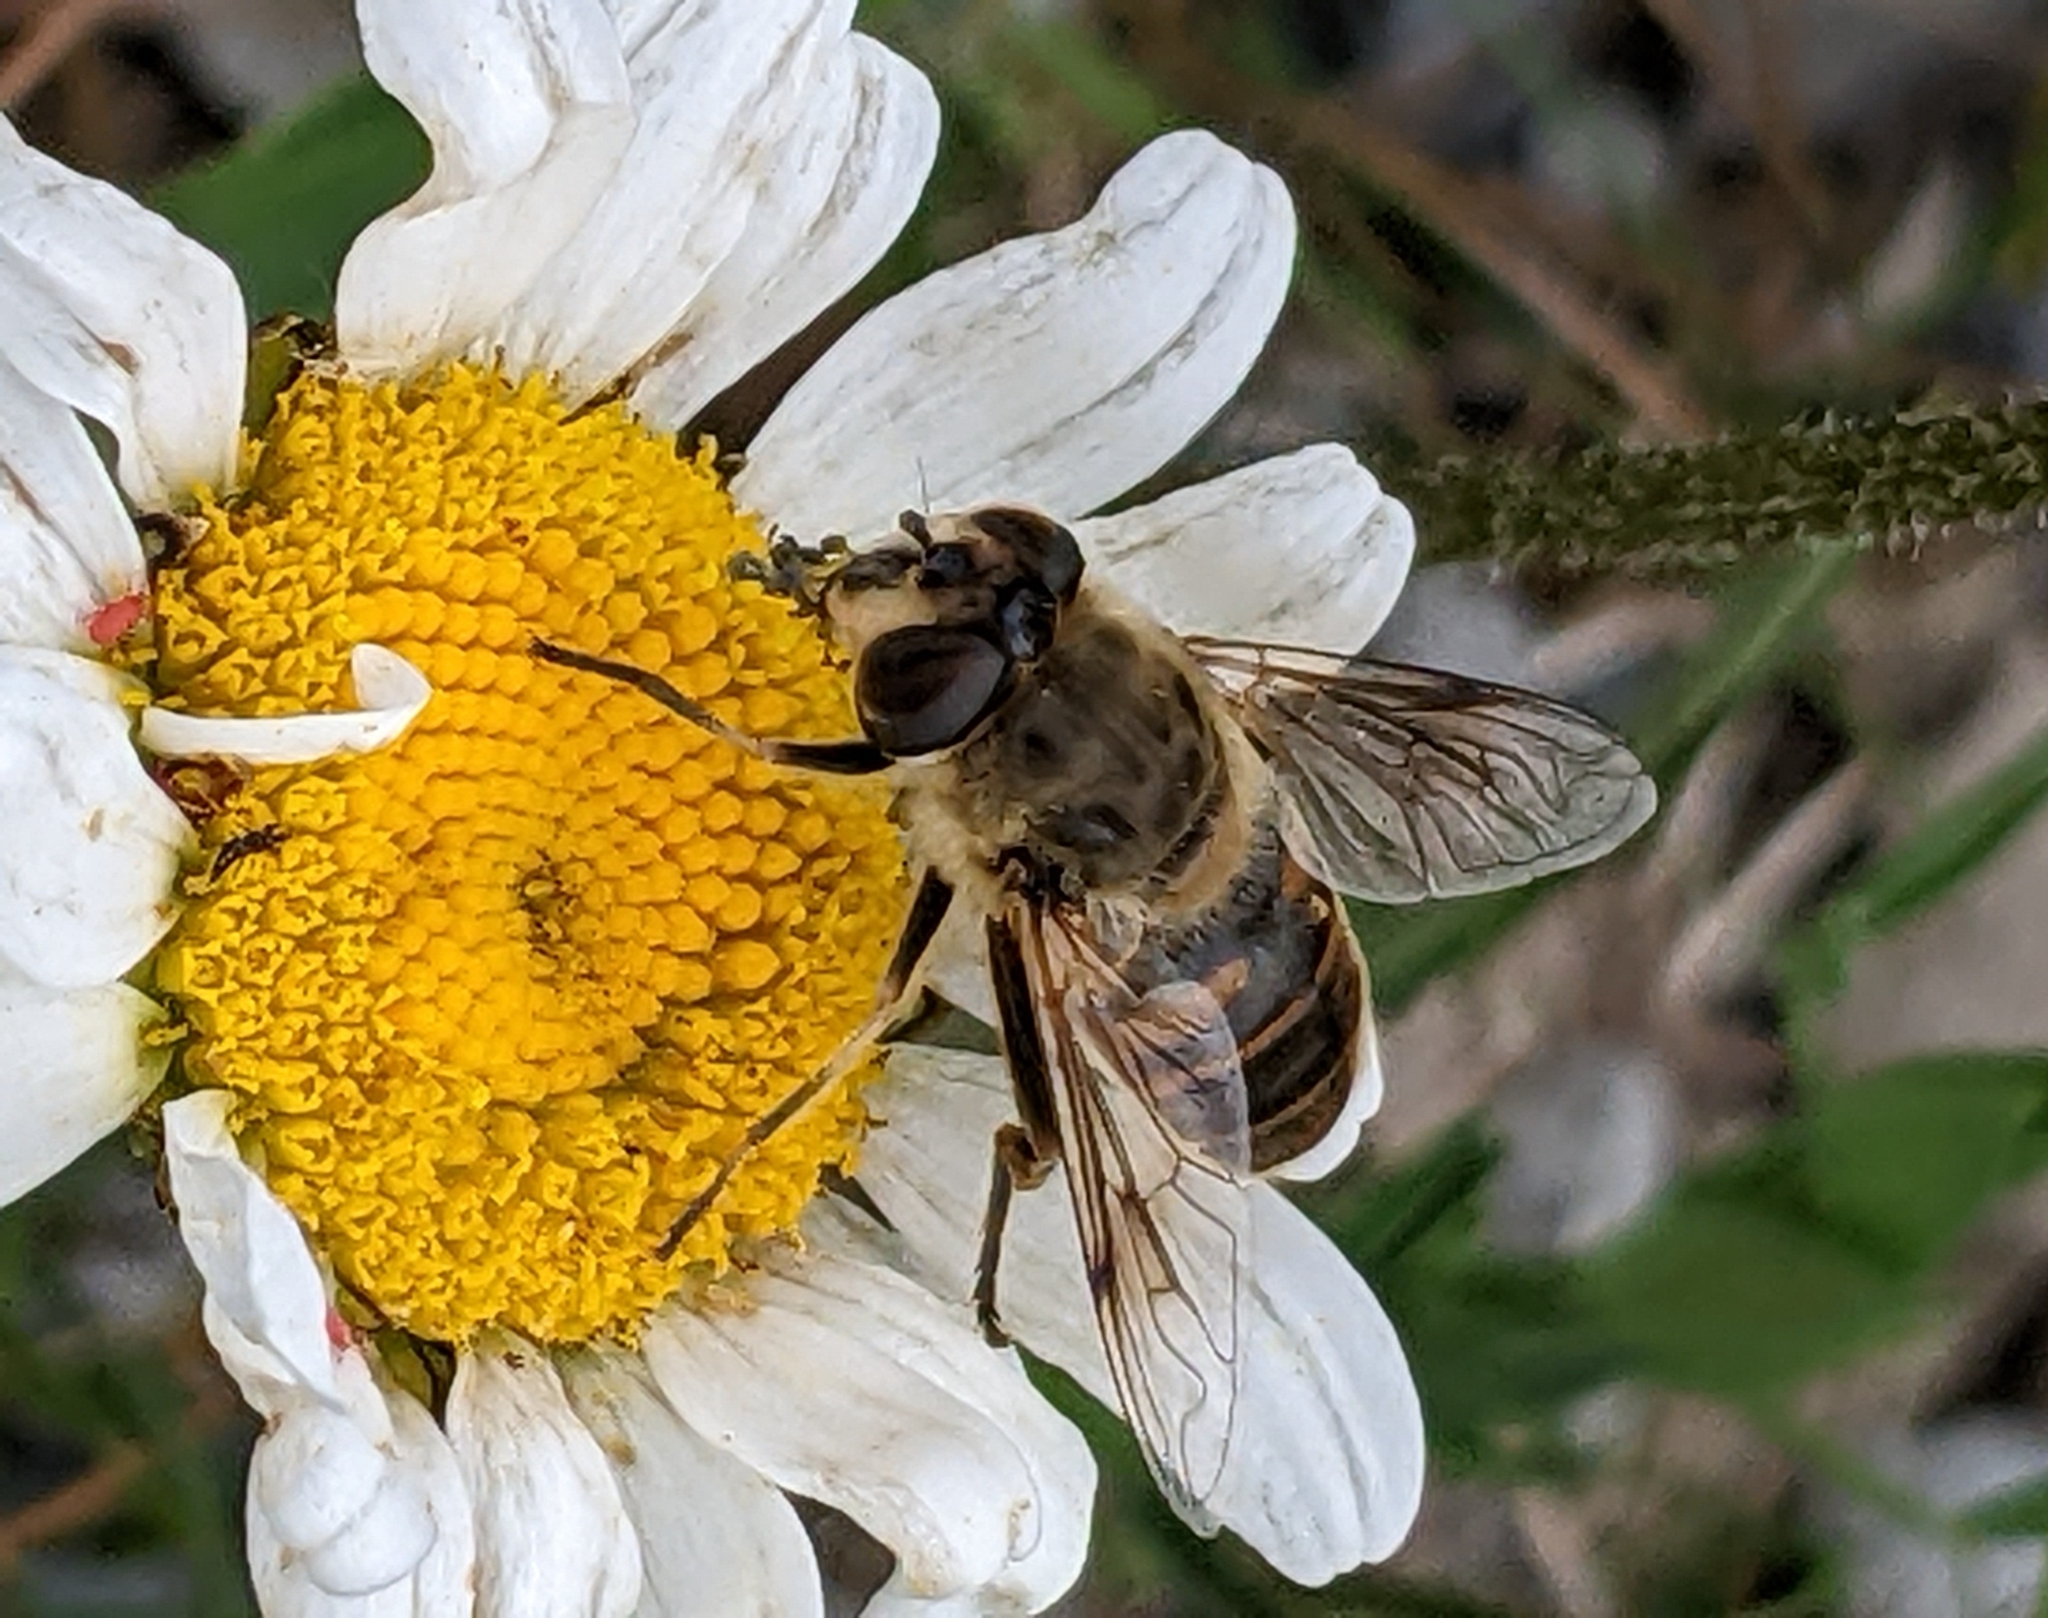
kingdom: Animalia
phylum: Arthropoda
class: Insecta
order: Diptera
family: Syrphidae
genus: Eristalis
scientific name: Eristalis tenax
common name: Drone fly
